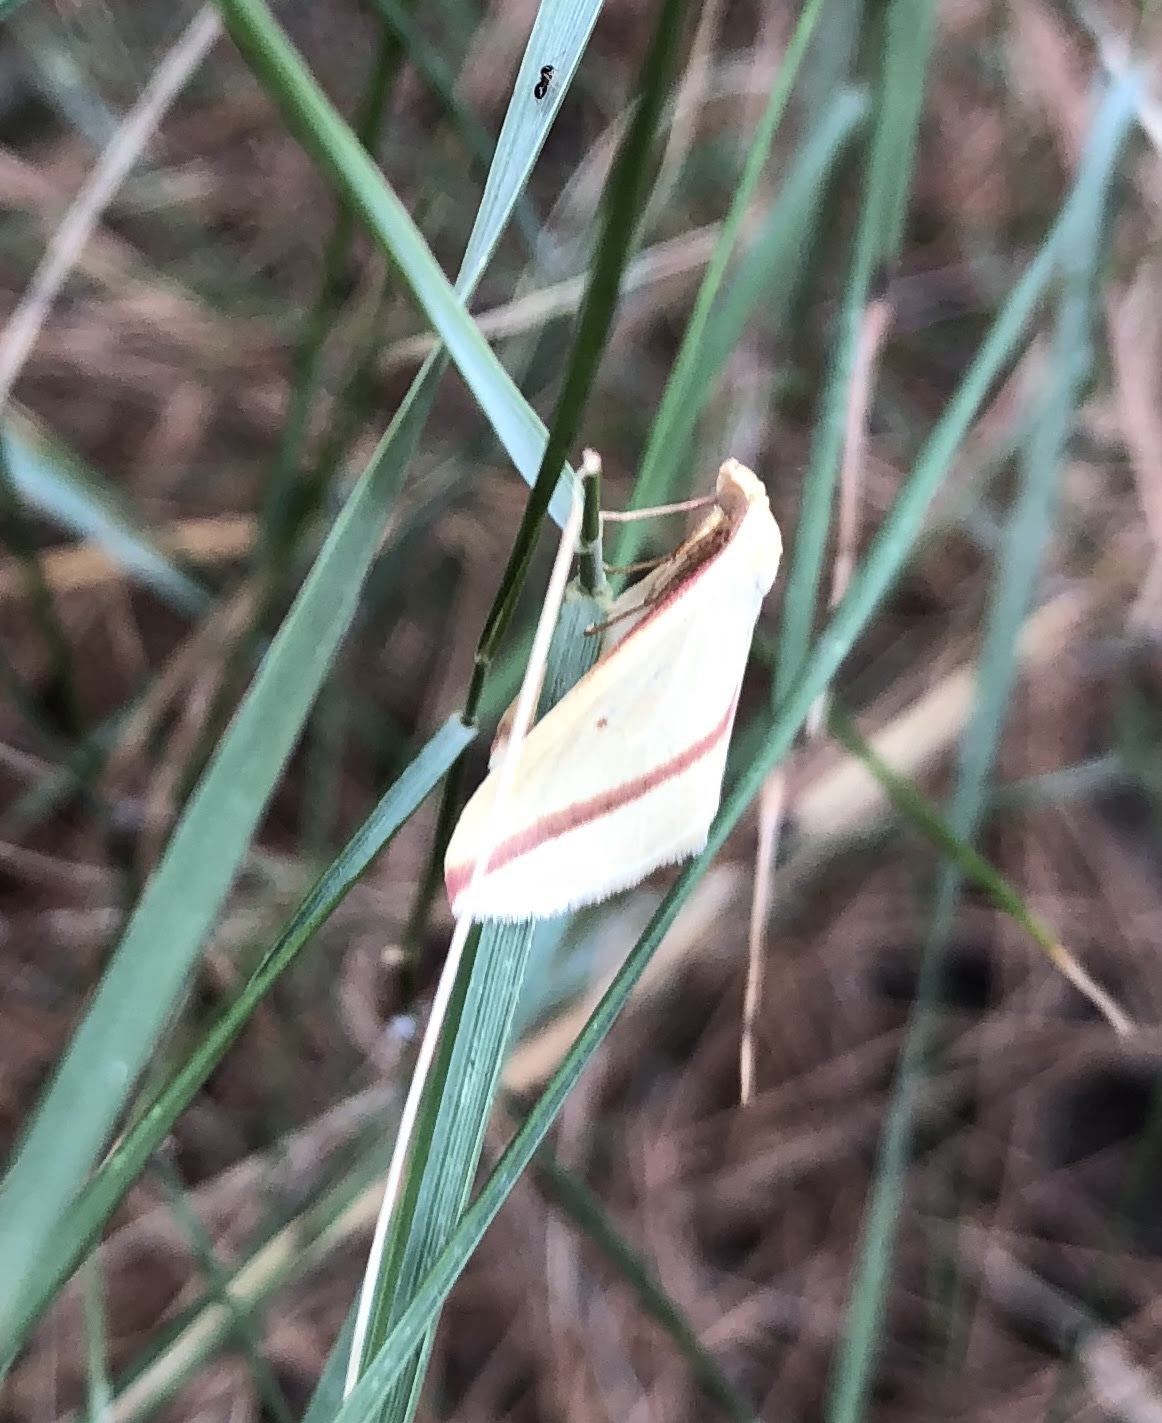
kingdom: Animalia
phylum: Arthropoda
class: Insecta
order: Lepidoptera
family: Geometridae
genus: Rhodometra
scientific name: Rhodometra sacraria
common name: Vestal
